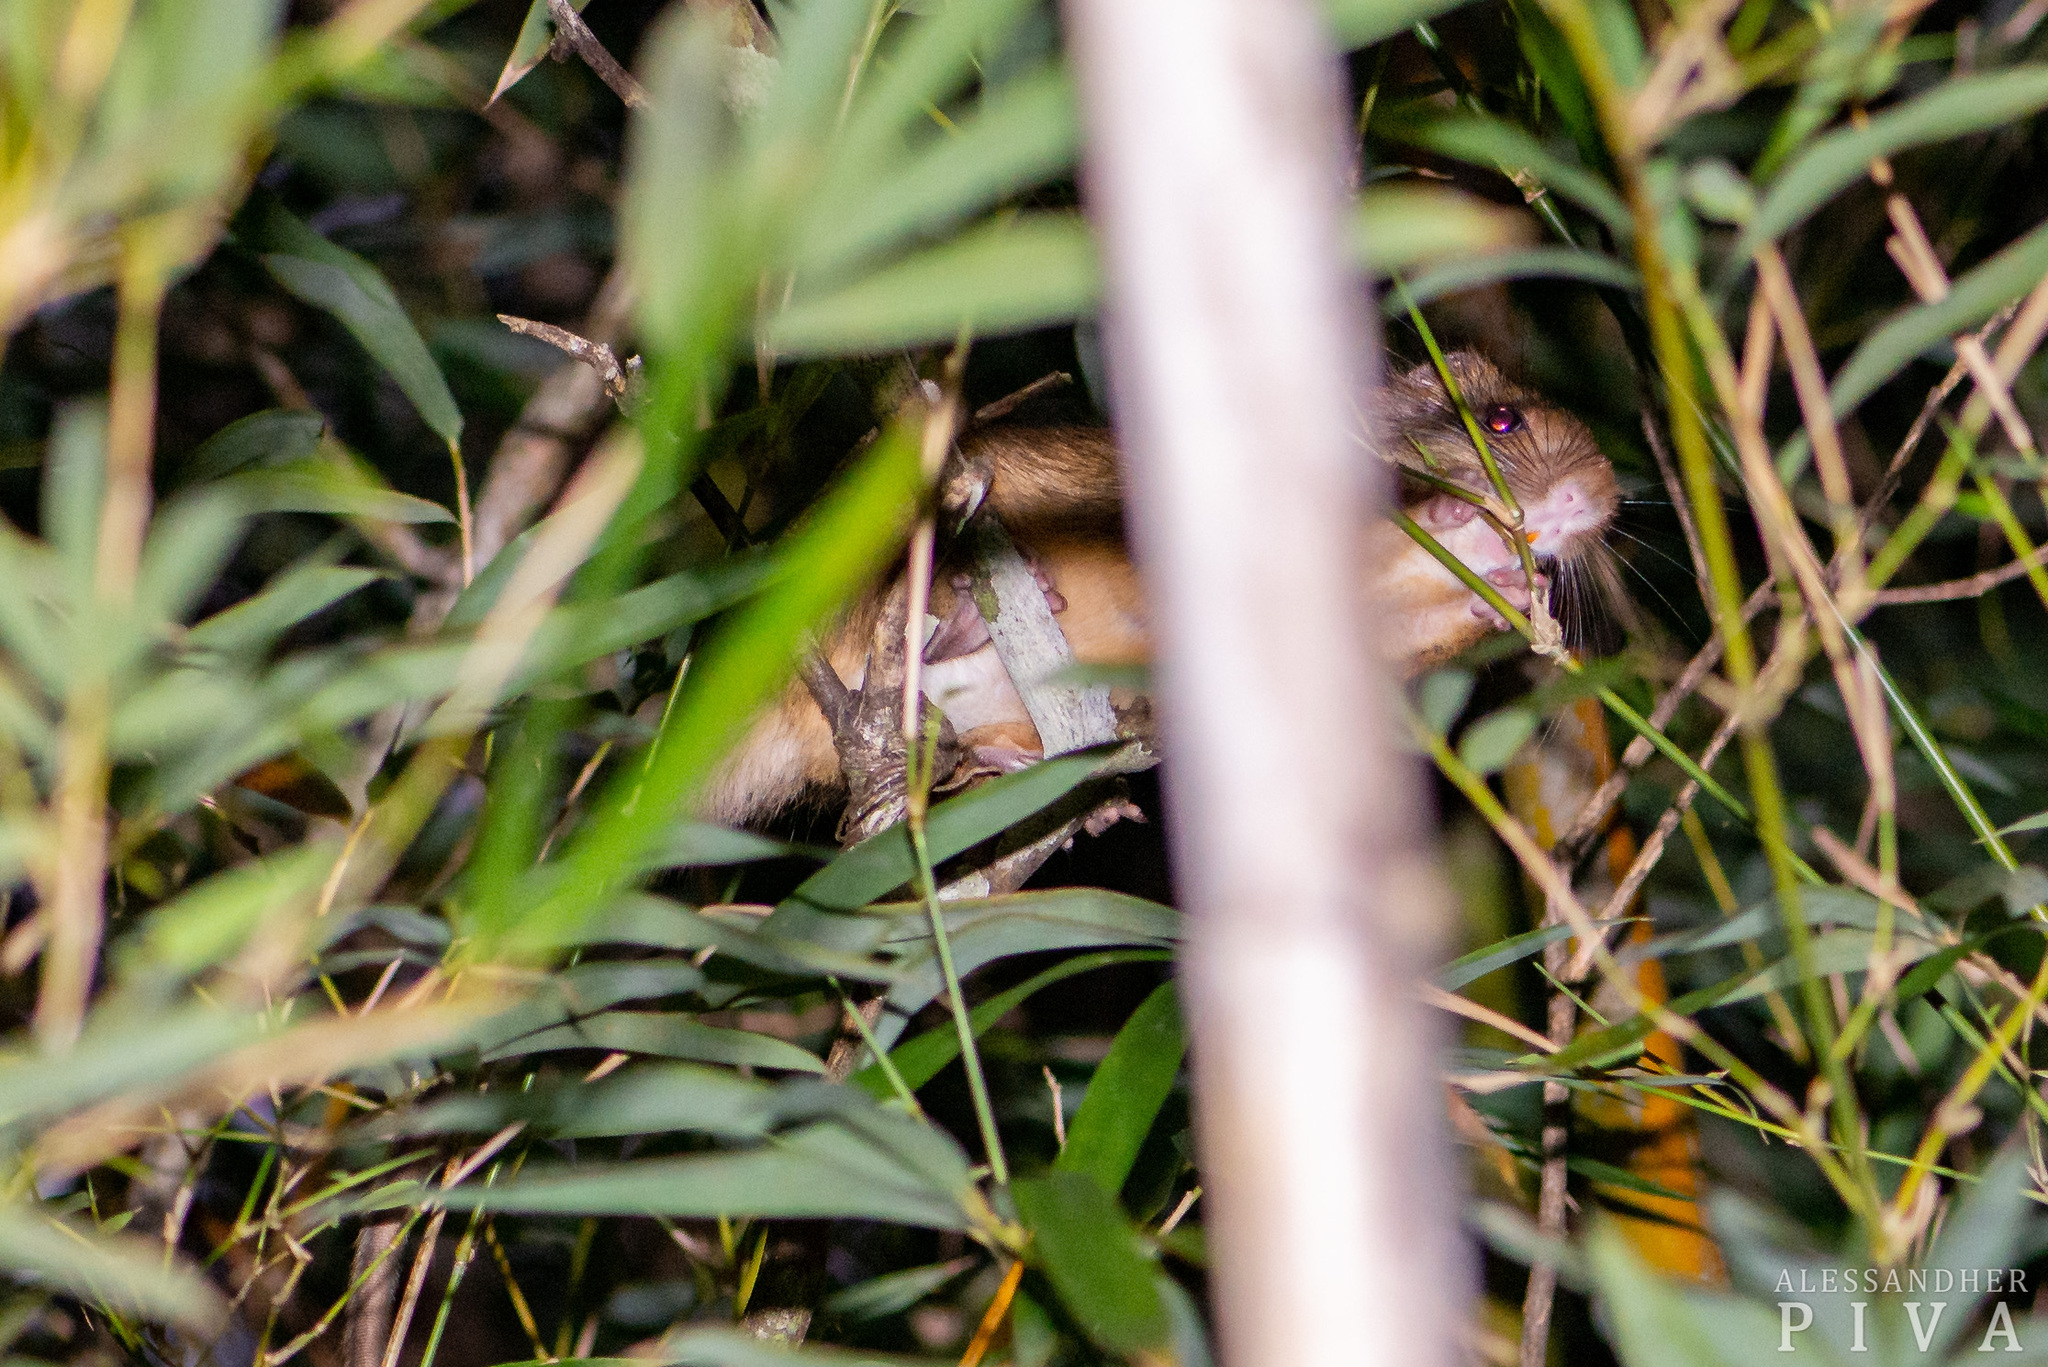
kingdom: Animalia
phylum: Chordata
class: Mammalia
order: Rodentia
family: Echimyidae
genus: Kannabateomys
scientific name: Kannabateomys amblyonyx
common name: Atlantic bamboo rat
